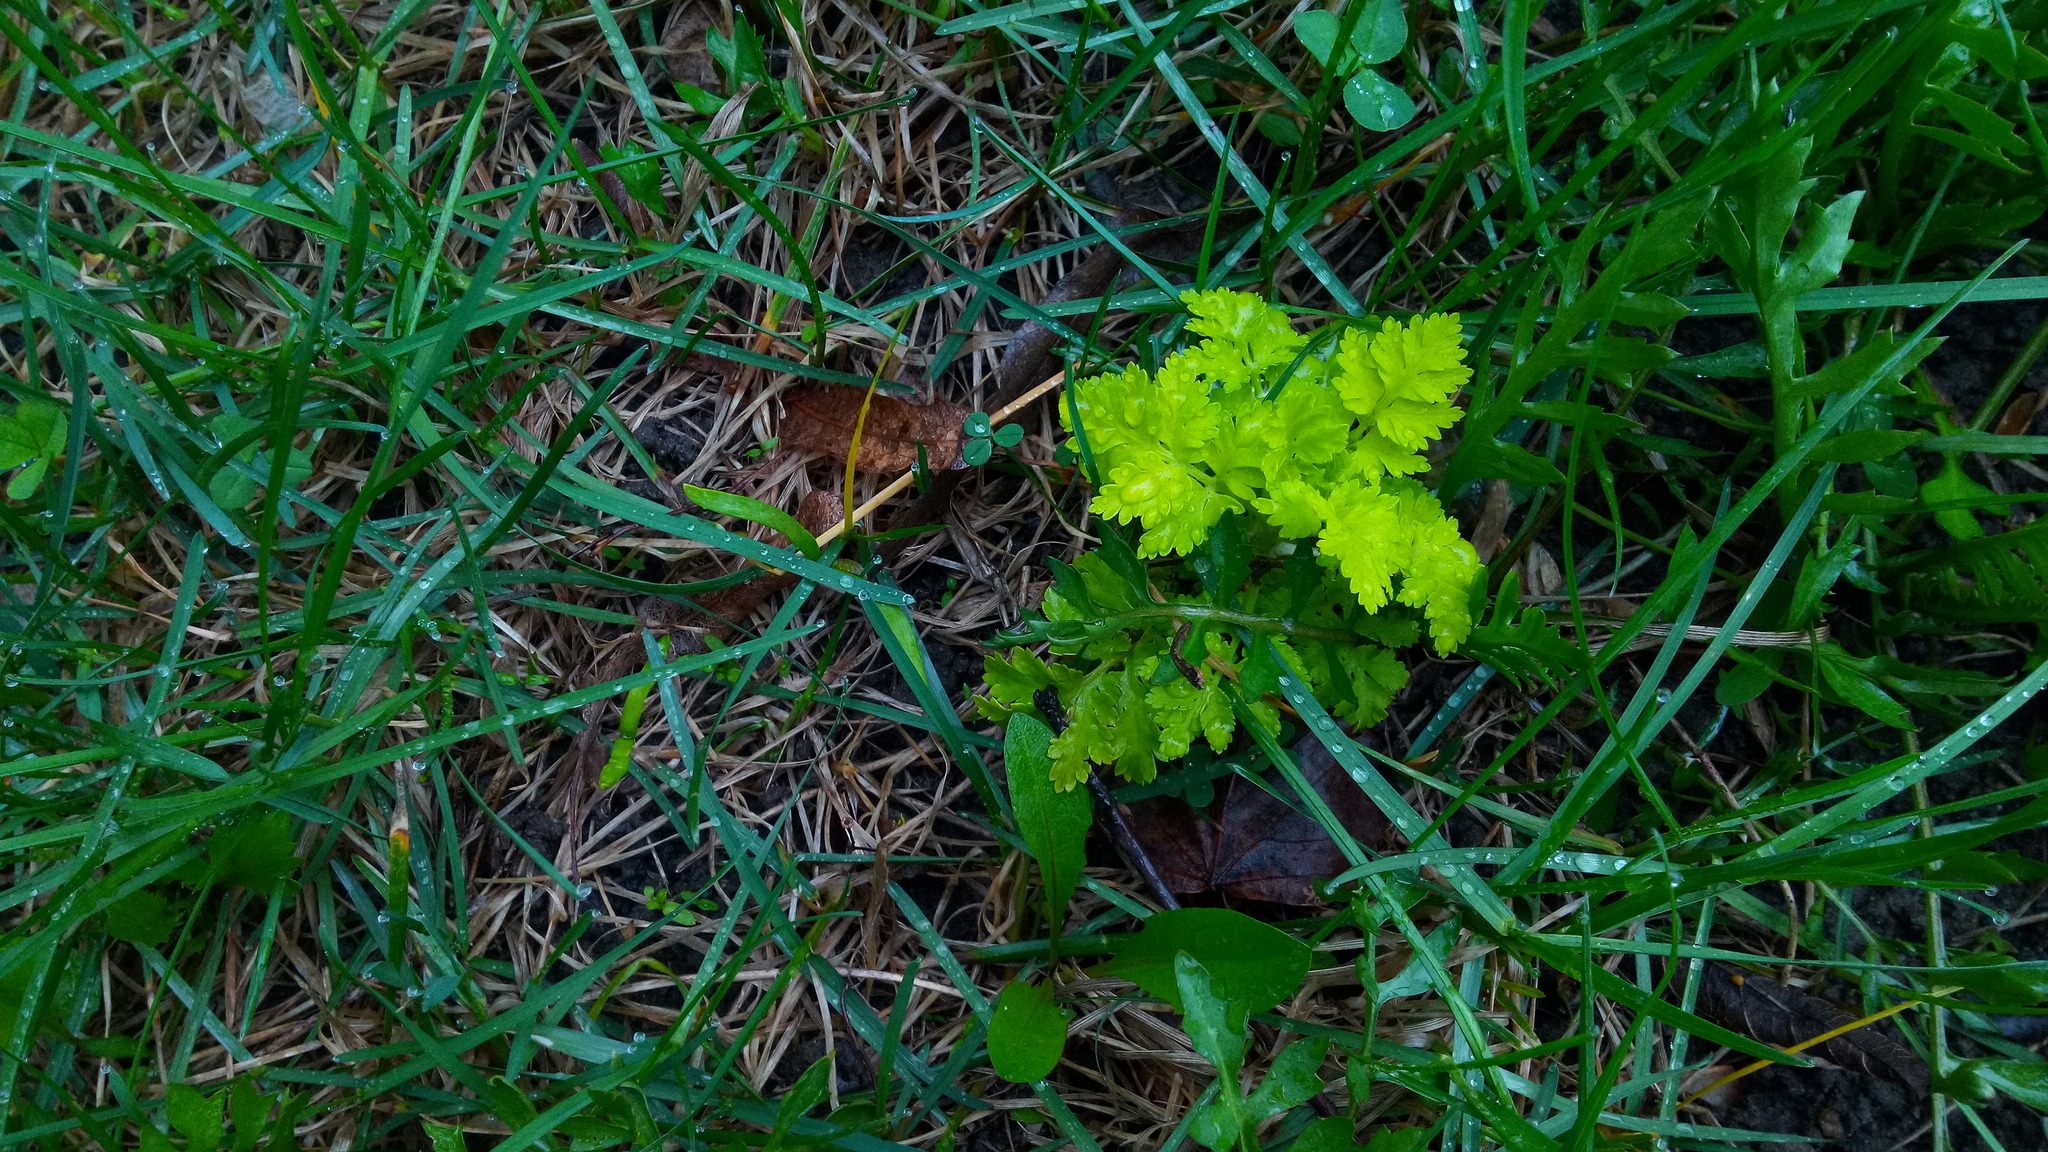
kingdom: Plantae
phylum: Tracheophyta
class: Magnoliopsida
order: Asterales
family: Asteraceae
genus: Tanacetum
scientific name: Tanacetum parthenium
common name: Feverfew
